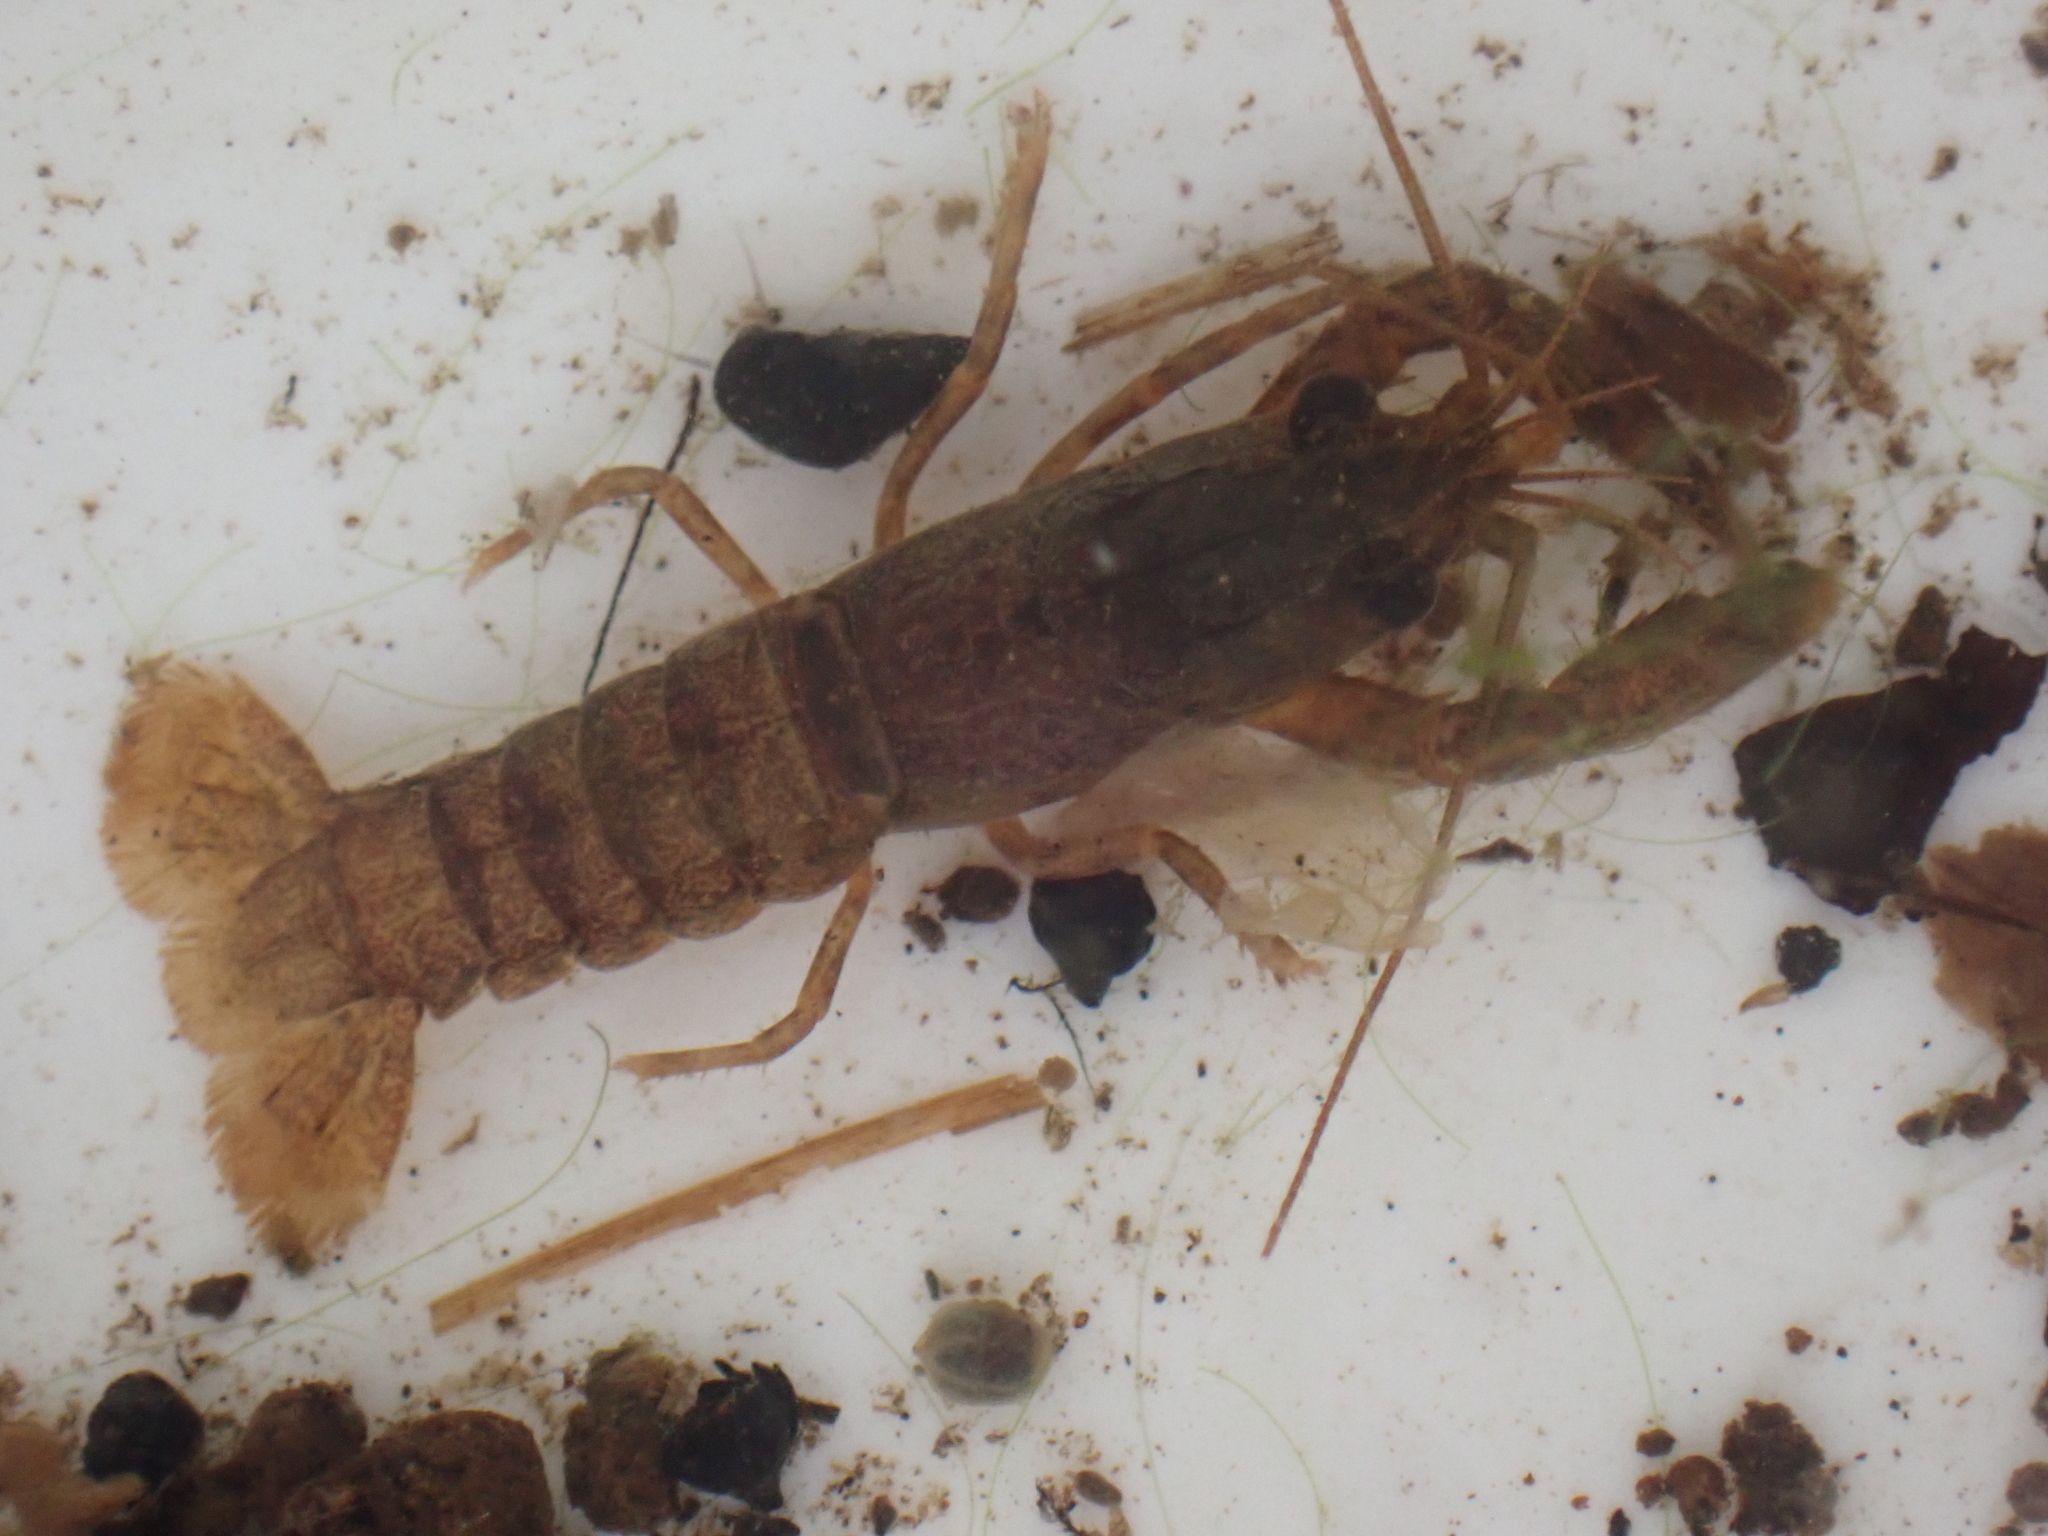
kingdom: Animalia
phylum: Arthropoda
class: Malacostraca
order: Decapoda
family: Parastacidae
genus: Paranephrops
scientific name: Paranephrops planifrons
